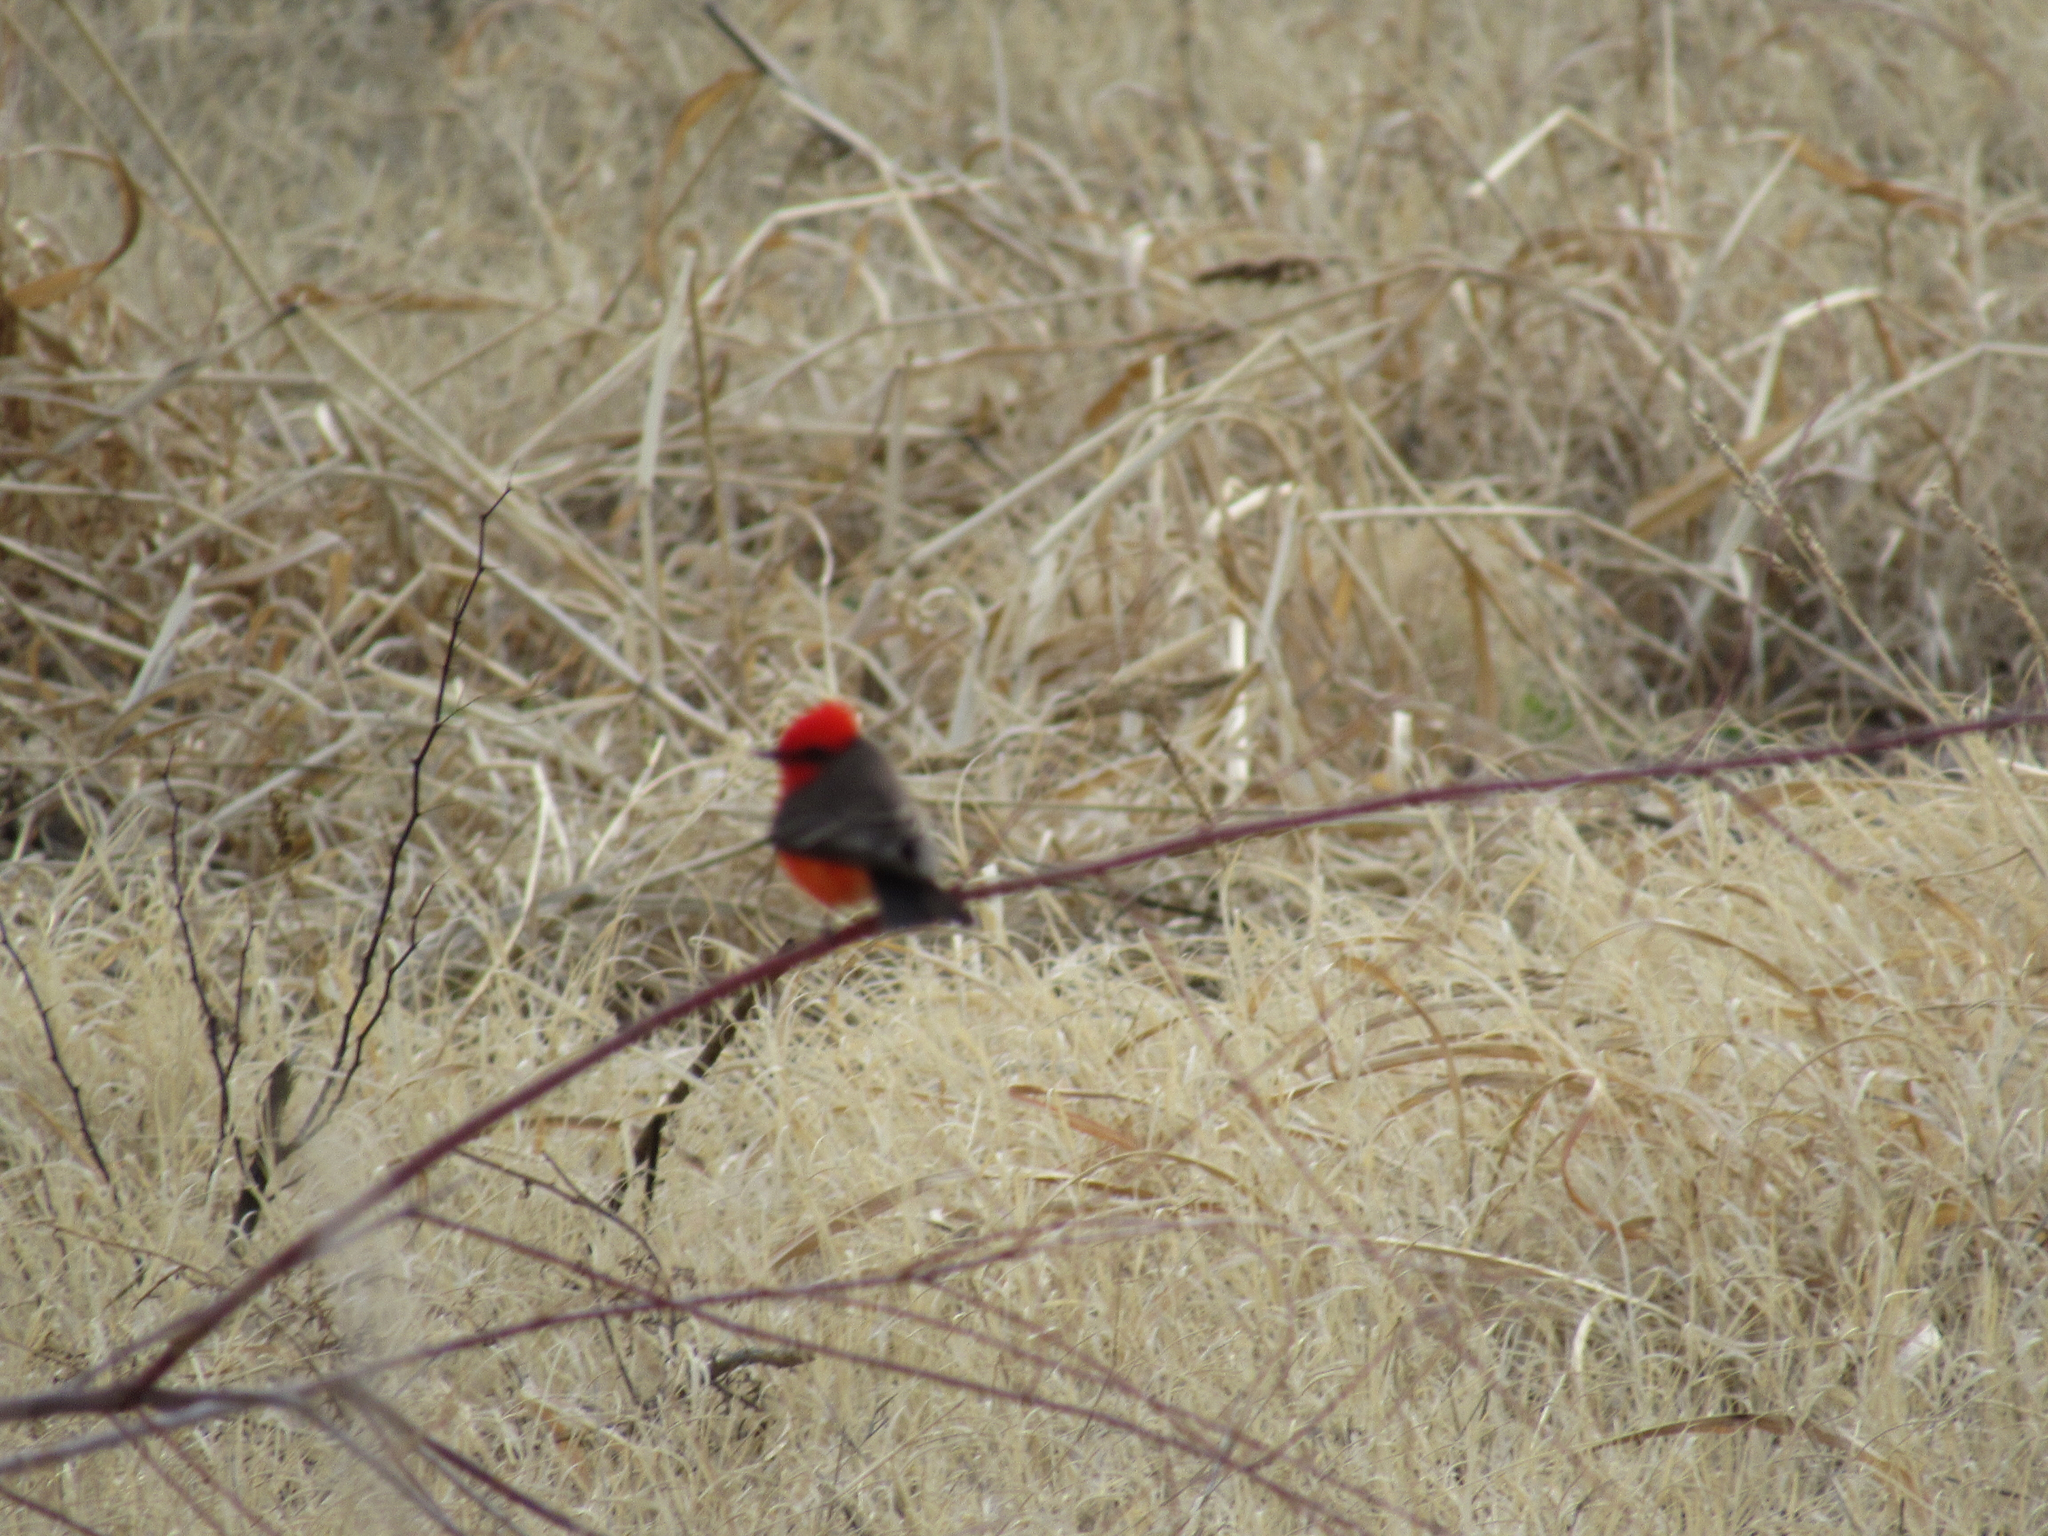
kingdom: Animalia
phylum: Chordata
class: Aves
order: Passeriformes
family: Tyrannidae
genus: Pyrocephalus
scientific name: Pyrocephalus rubinus
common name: Vermilion flycatcher
